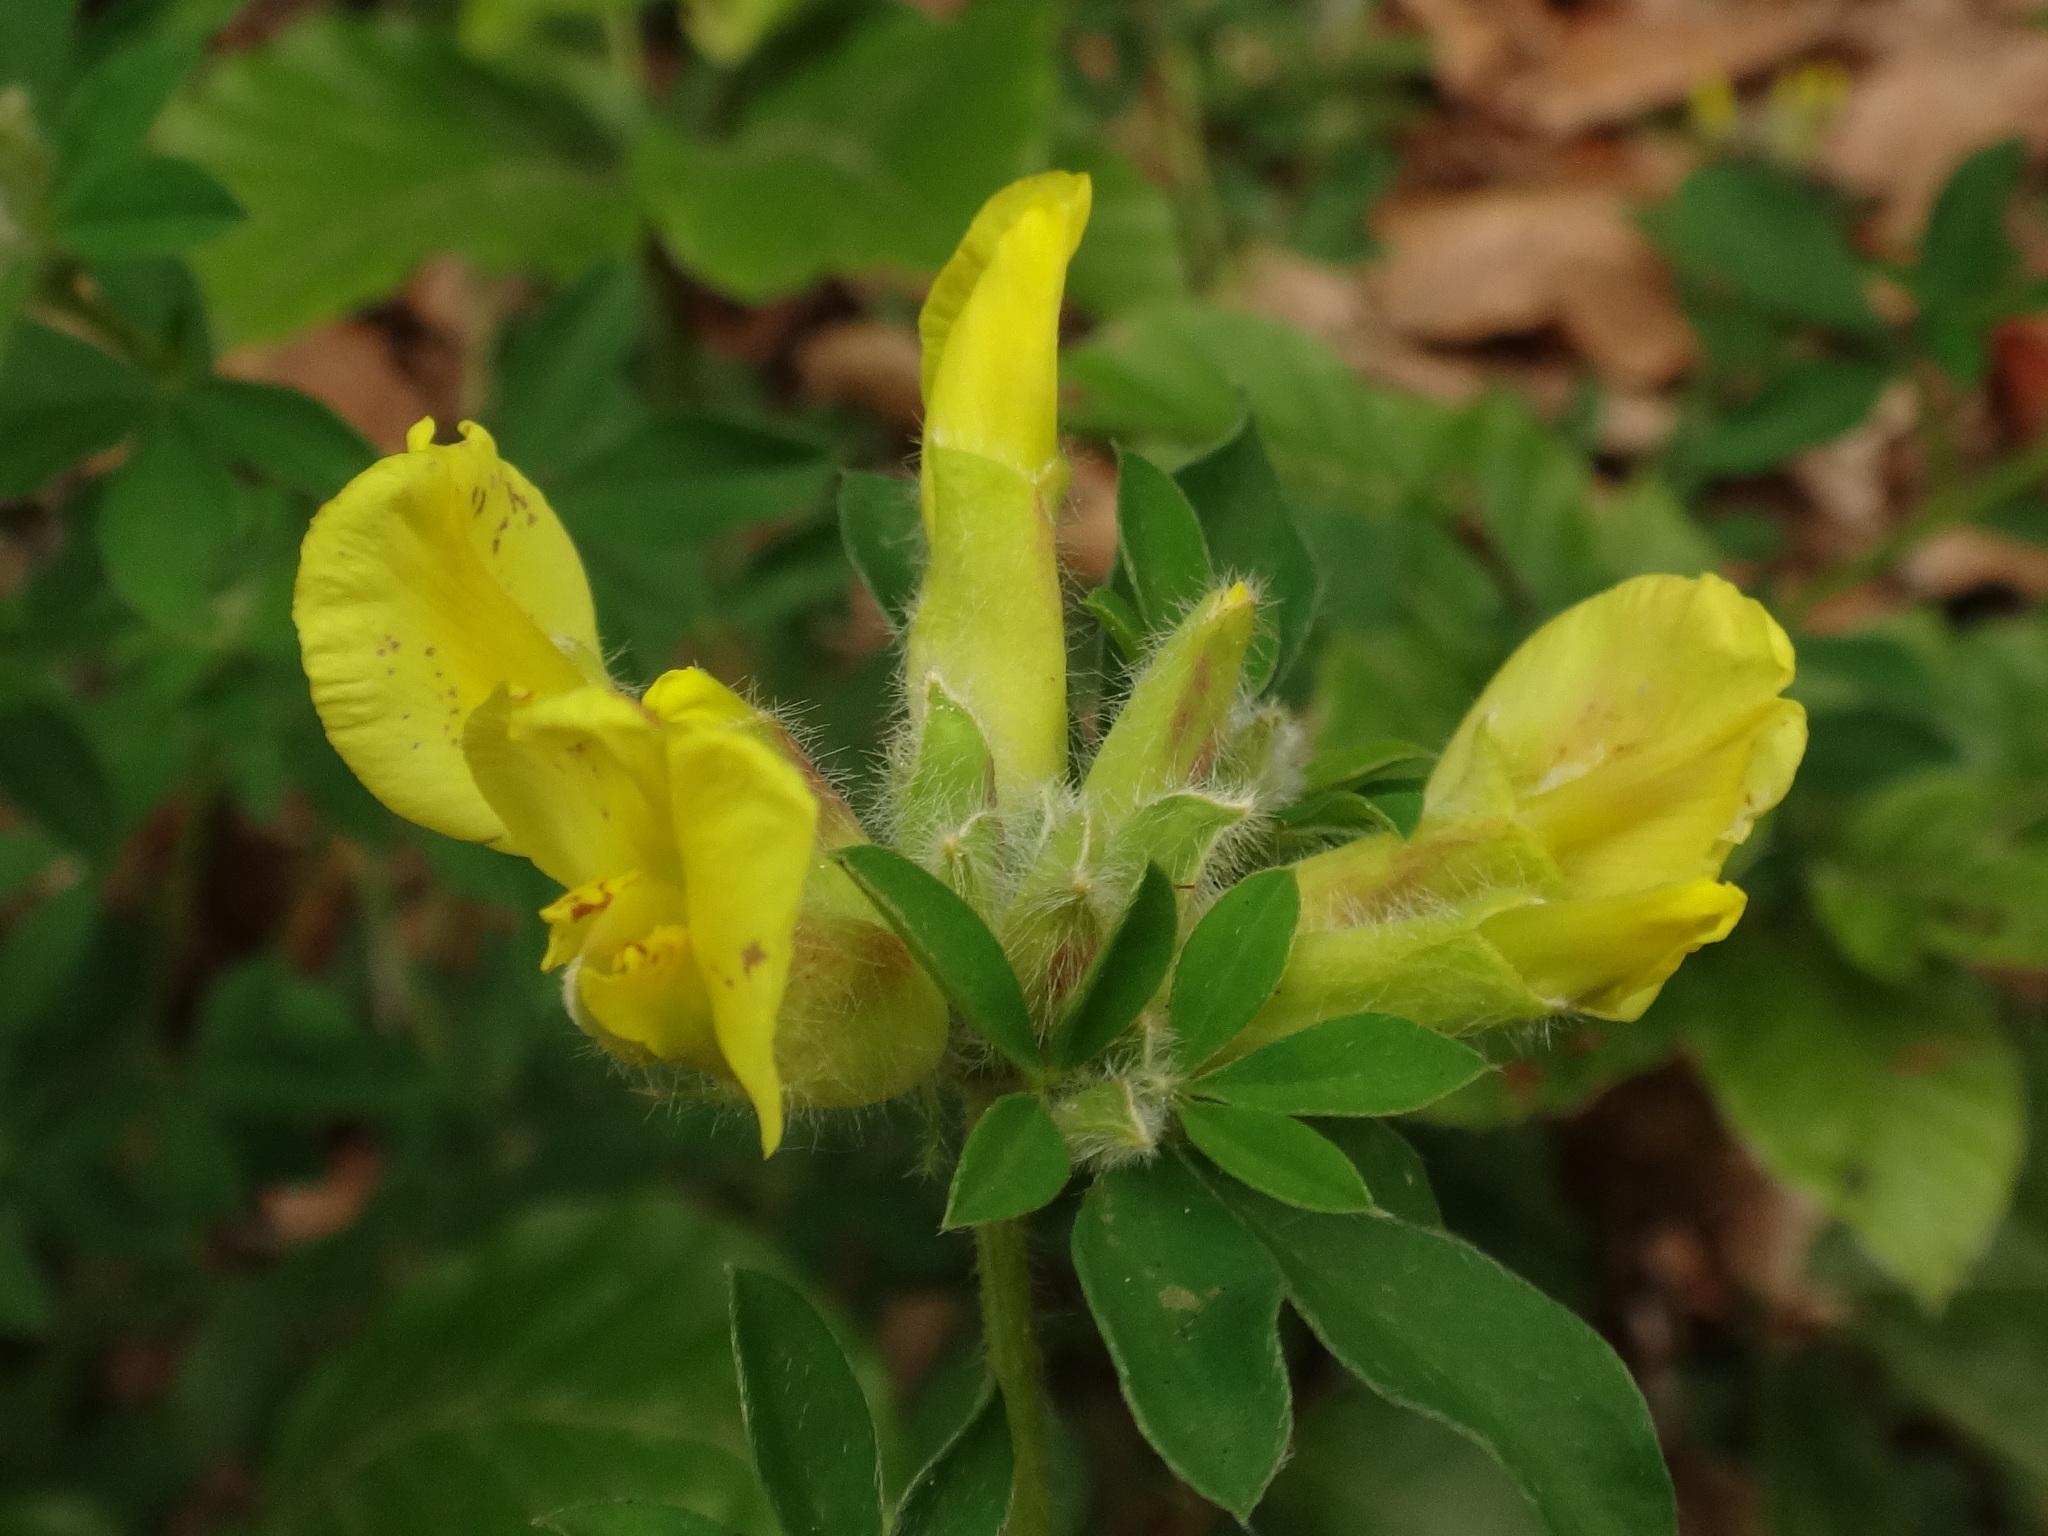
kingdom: Plantae
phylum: Tracheophyta
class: Magnoliopsida
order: Fabales
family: Fabaceae
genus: Chamaecytisus
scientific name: Chamaecytisus hirsutus
